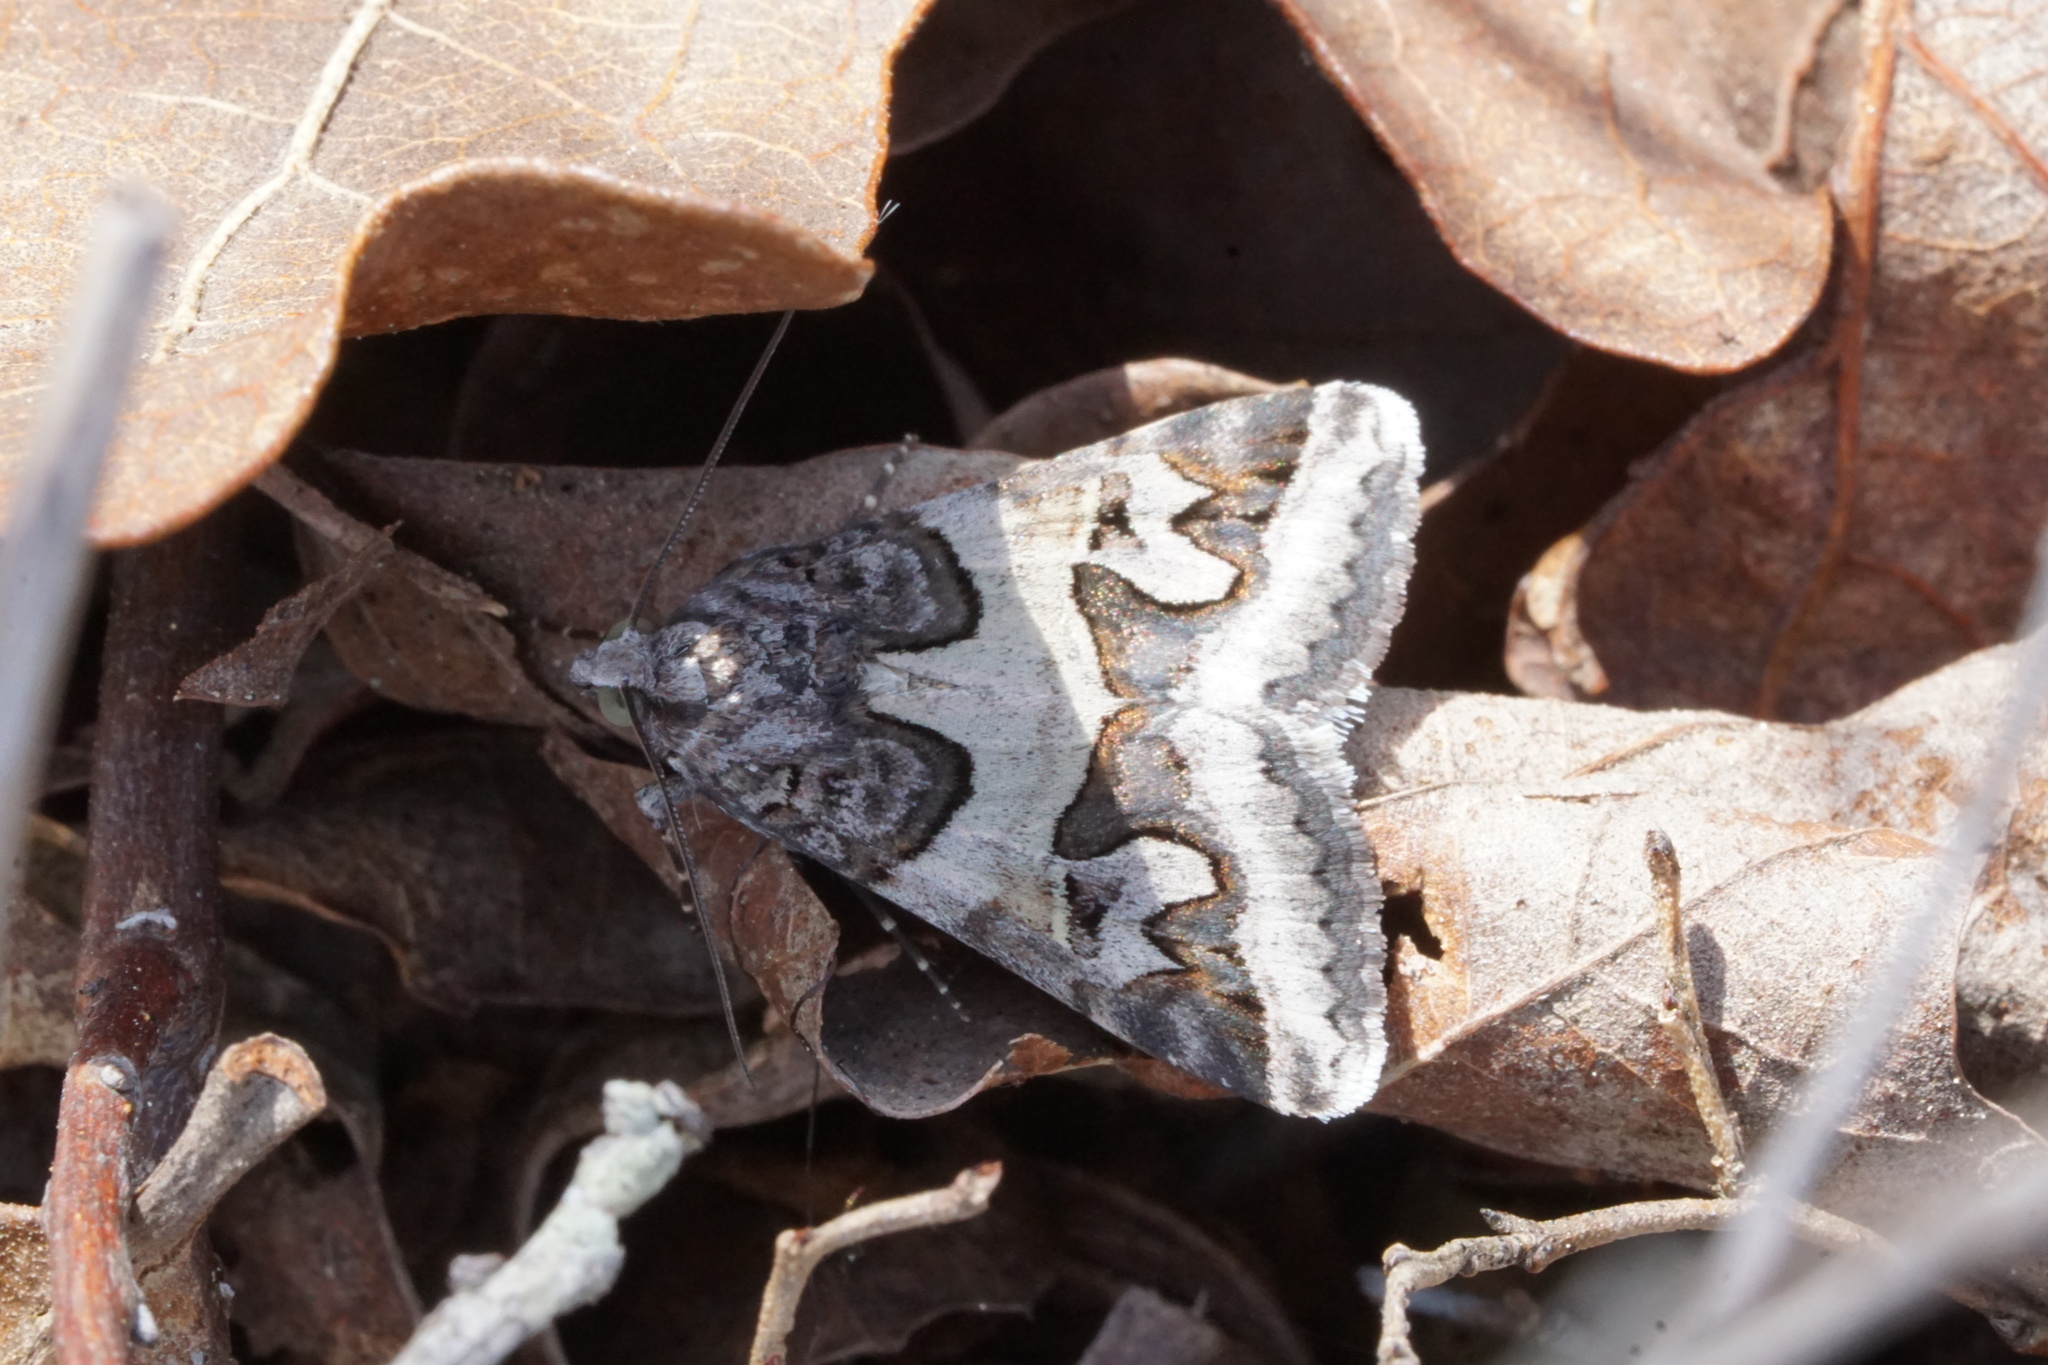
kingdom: Animalia
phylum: Arthropoda
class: Insecta
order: Lepidoptera
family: Erebidae
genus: Drasteria
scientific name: Drasteria graphica
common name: Coastal graphic
